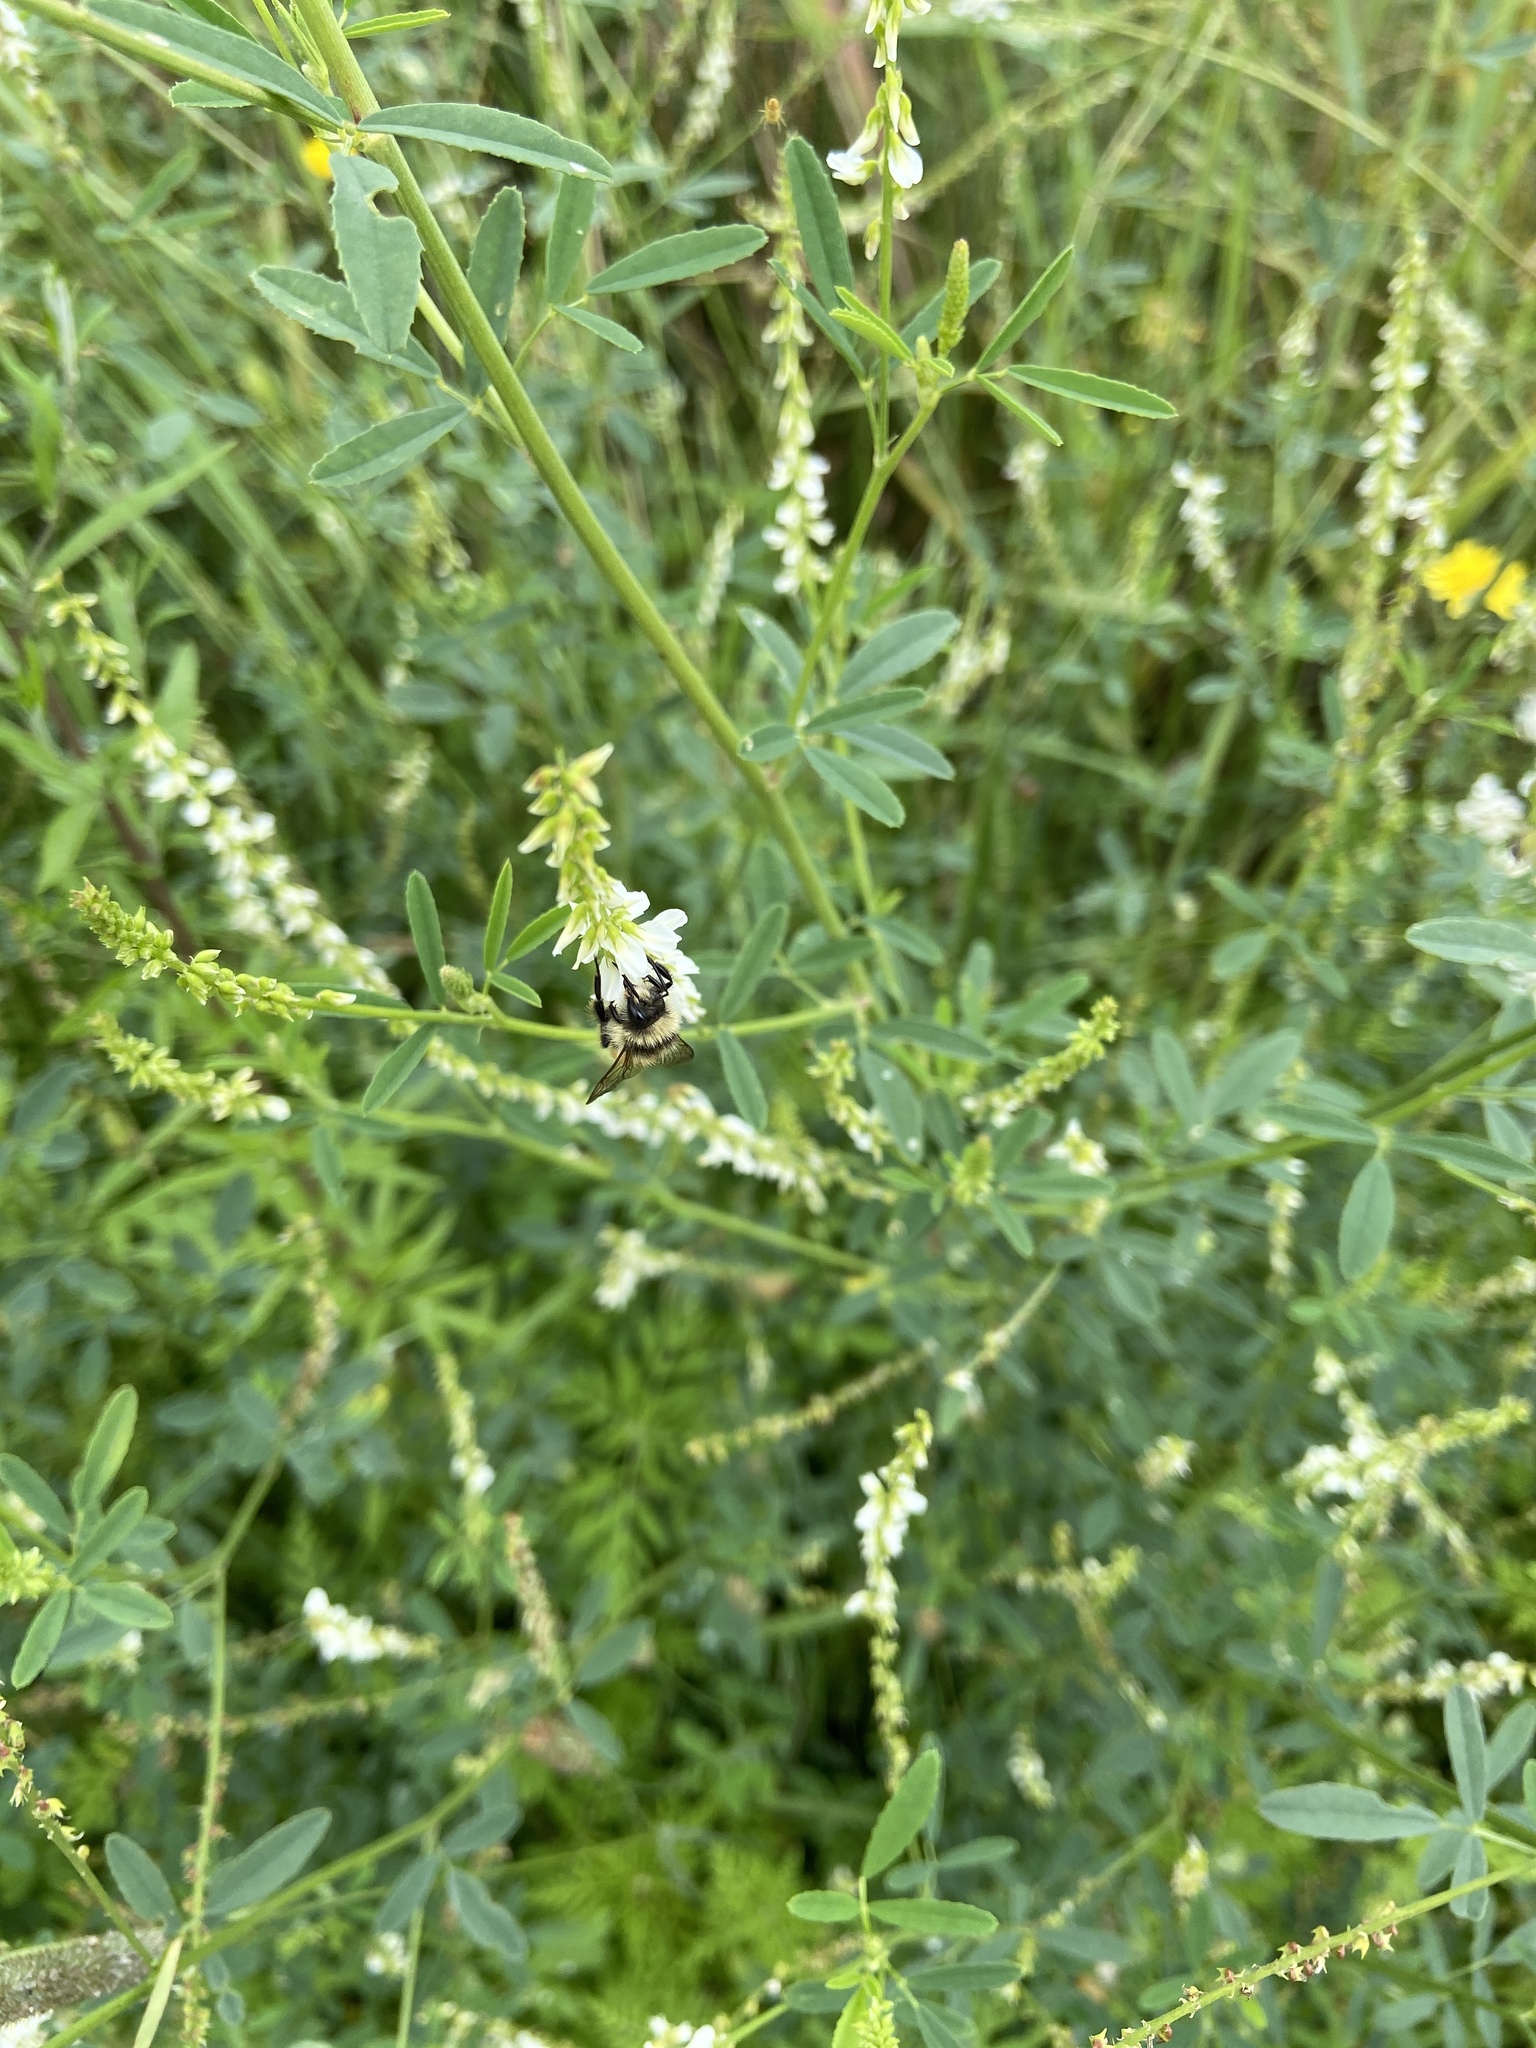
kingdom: Animalia
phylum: Arthropoda
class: Insecta
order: Hymenoptera
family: Apidae
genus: Bombus
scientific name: Bombus ternarius
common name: Tri-colored bumble bee
